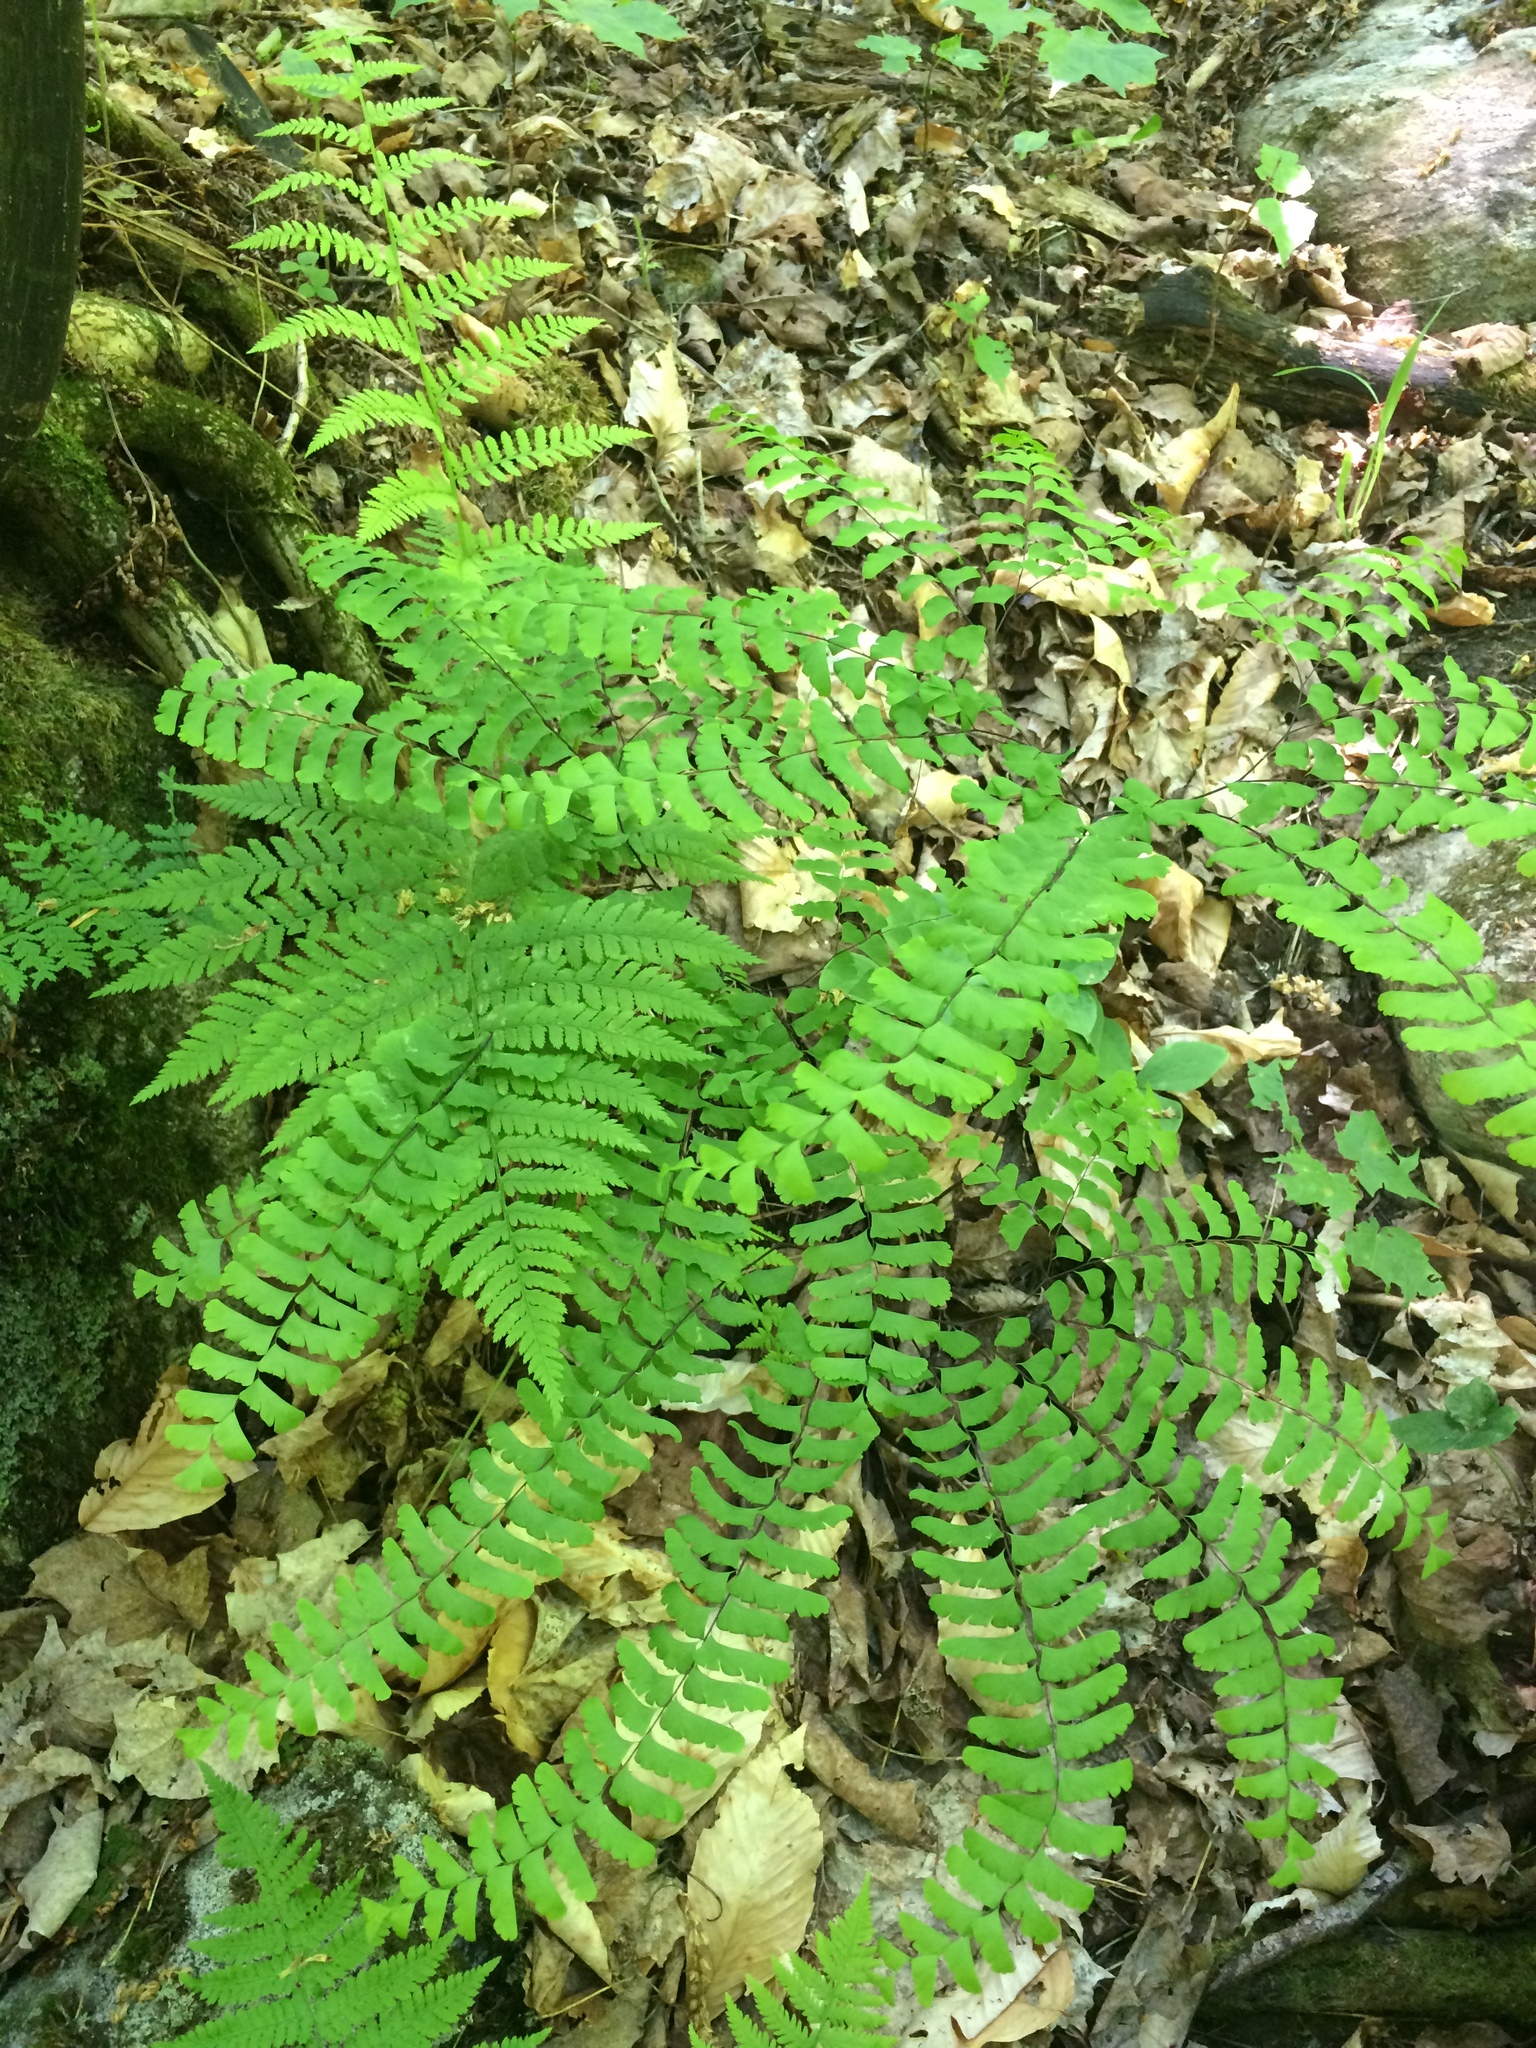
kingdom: Plantae
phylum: Tracheophyta
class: Polypodiopsida
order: Polypodiales
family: Pteridaceae
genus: Adiantum
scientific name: Adiantum pedatum
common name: Five-finger fern
